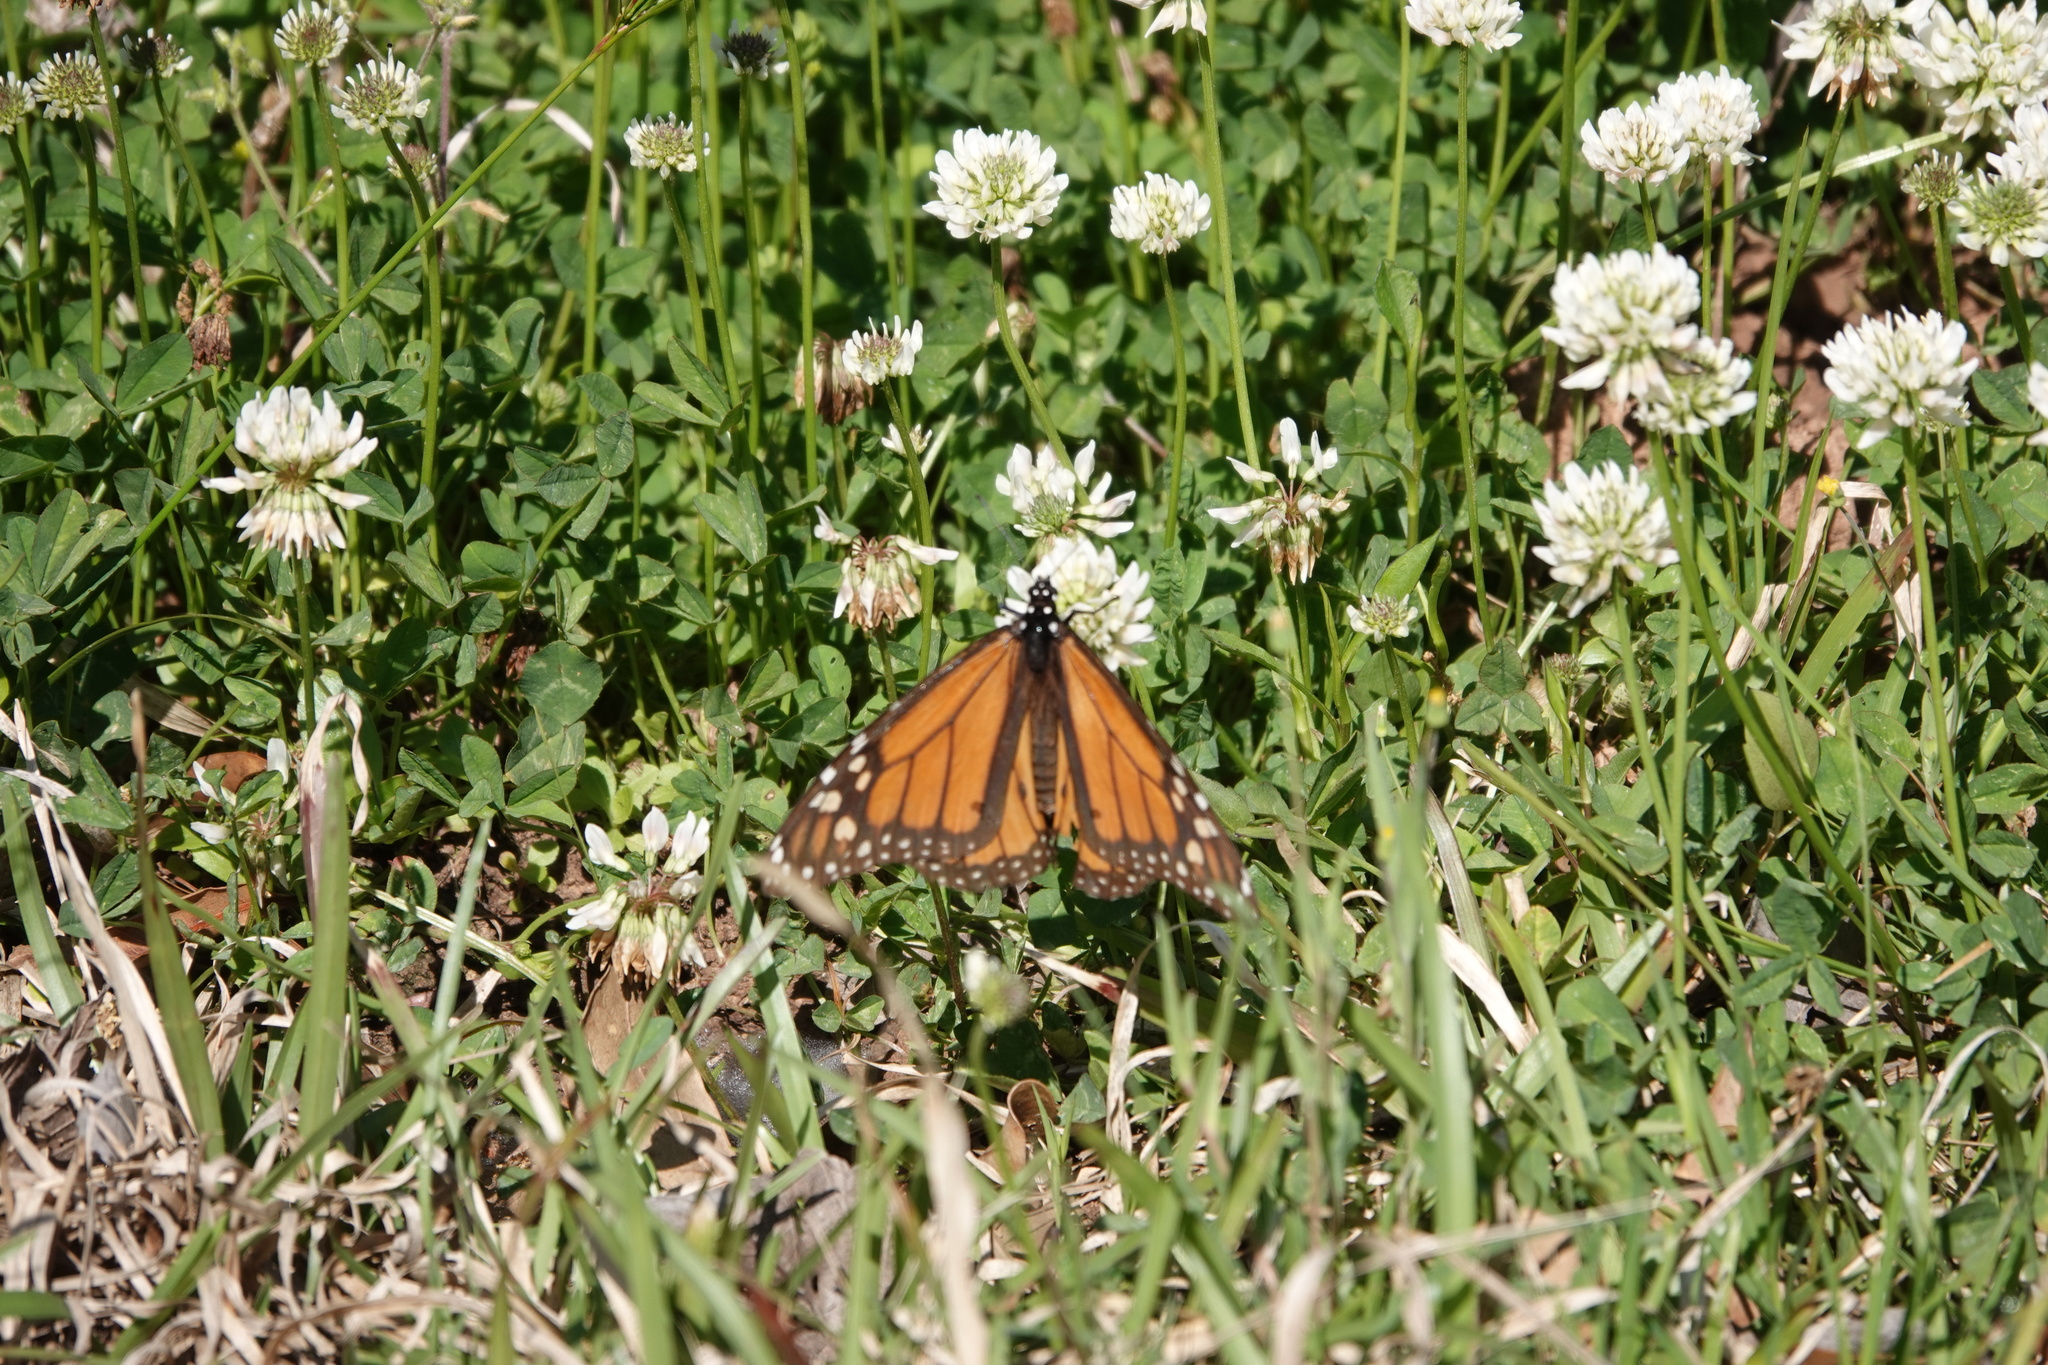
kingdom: Animalia
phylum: Arthropoda
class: Insecta
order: Lepidoptera
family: Nymphalidae
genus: Danaus
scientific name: Danaus plexippus
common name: Monarch
